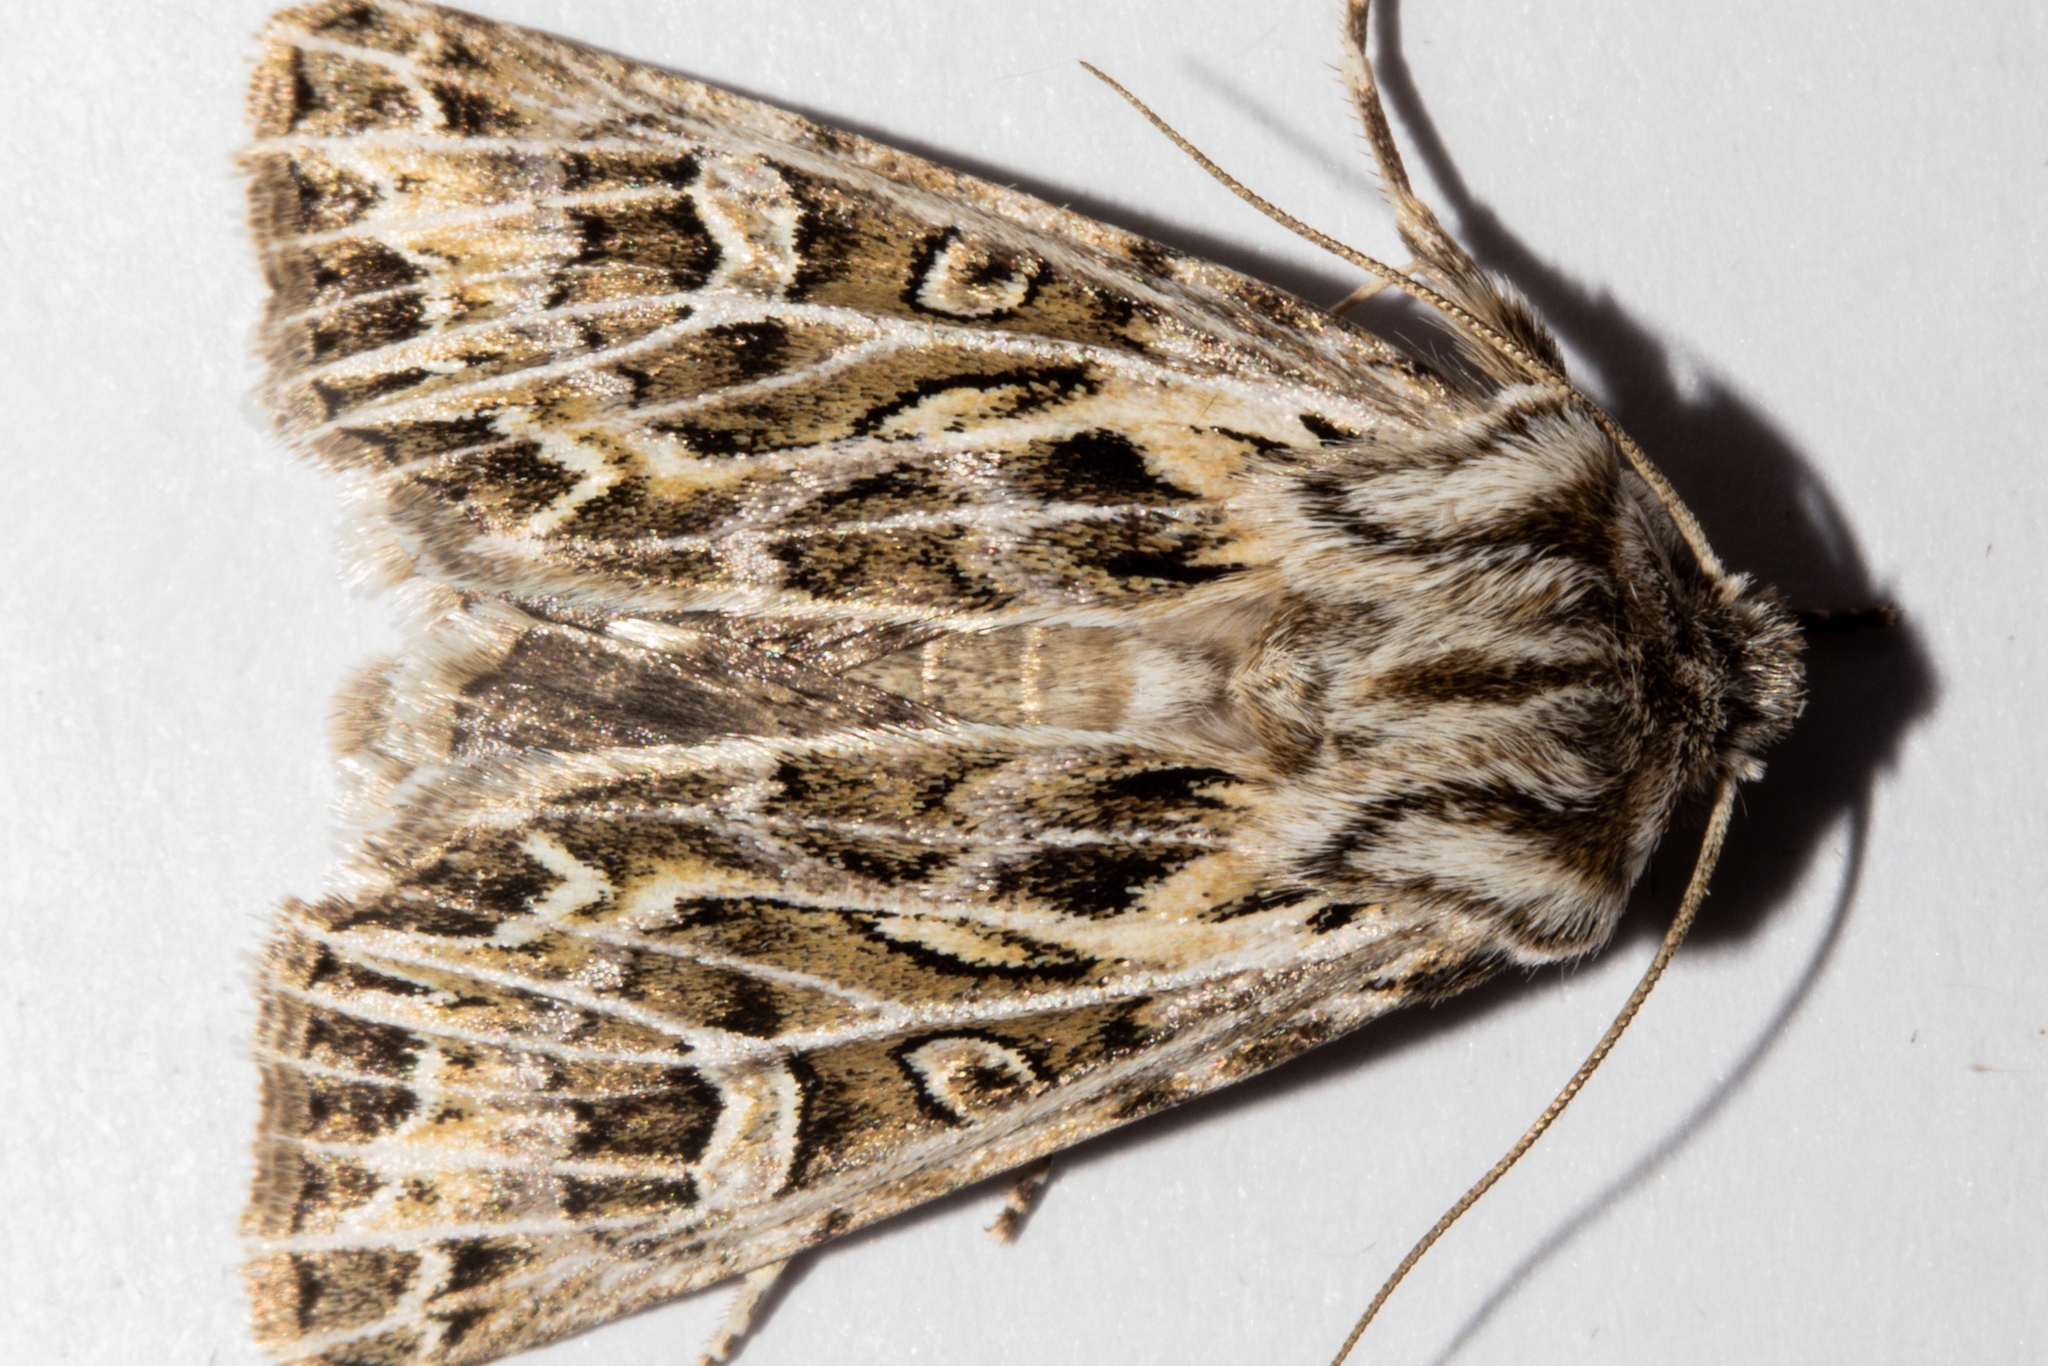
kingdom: Animalia
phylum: Arthropoda
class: Insecta
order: Lepidoptera
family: Noctuidae
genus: Ichneutica
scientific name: Ichneutica
